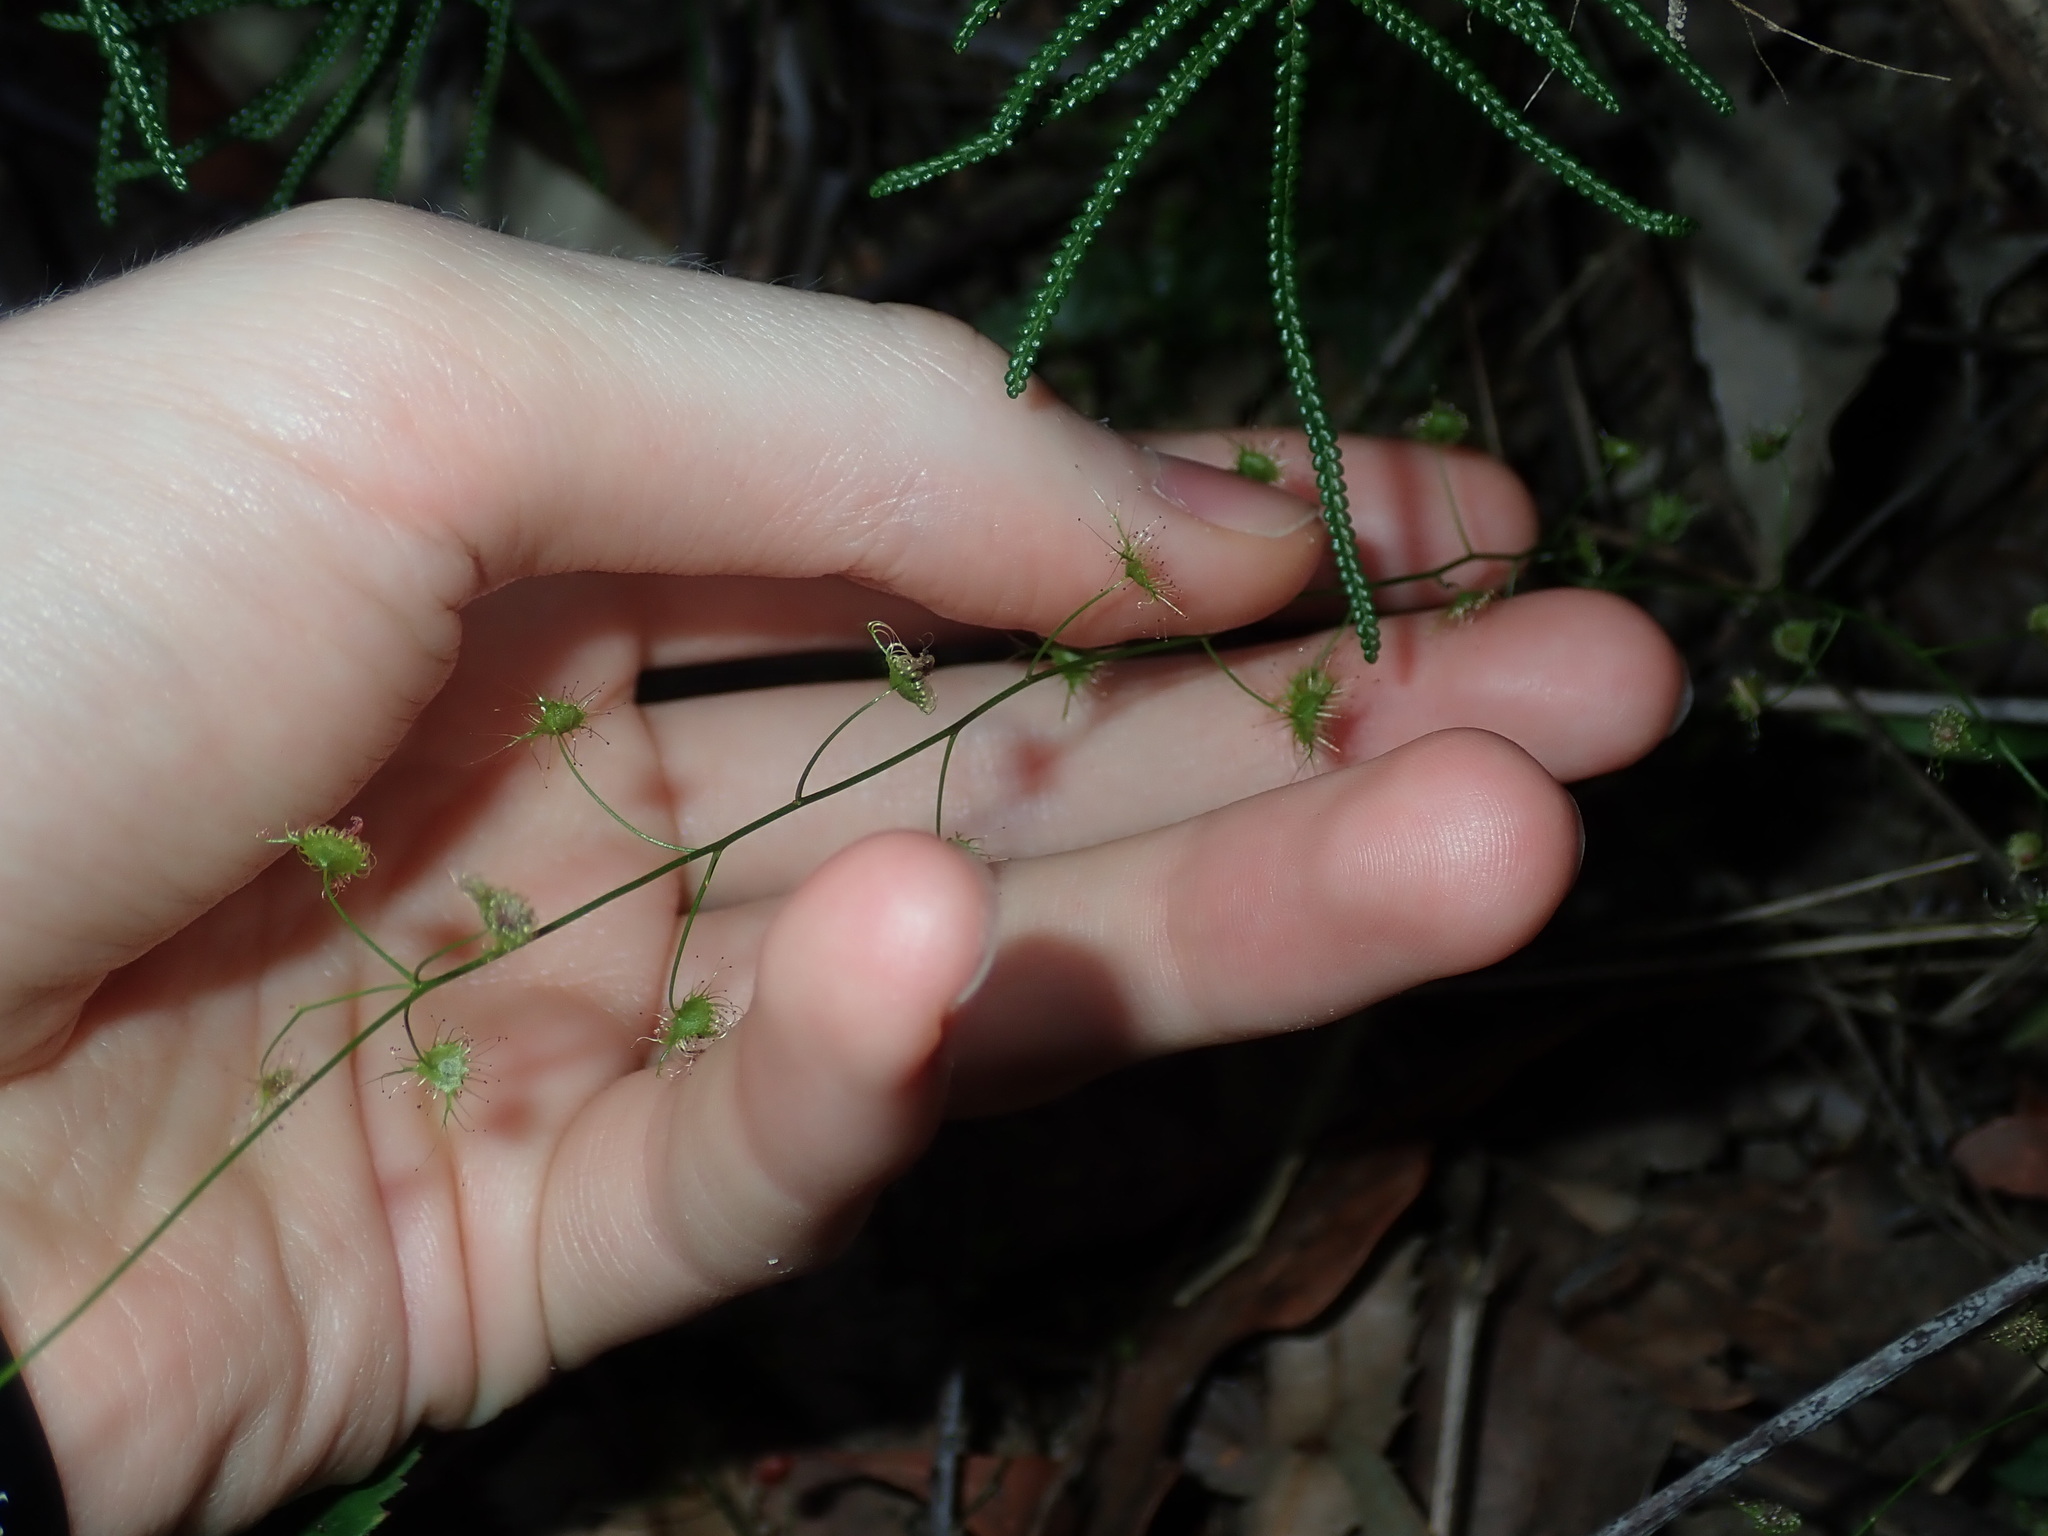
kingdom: Plantae
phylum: Tracheophyta
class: Magnoliopsida
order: Caryophyllales
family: Droseraceae
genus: Drosera
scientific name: Drosera peltata
